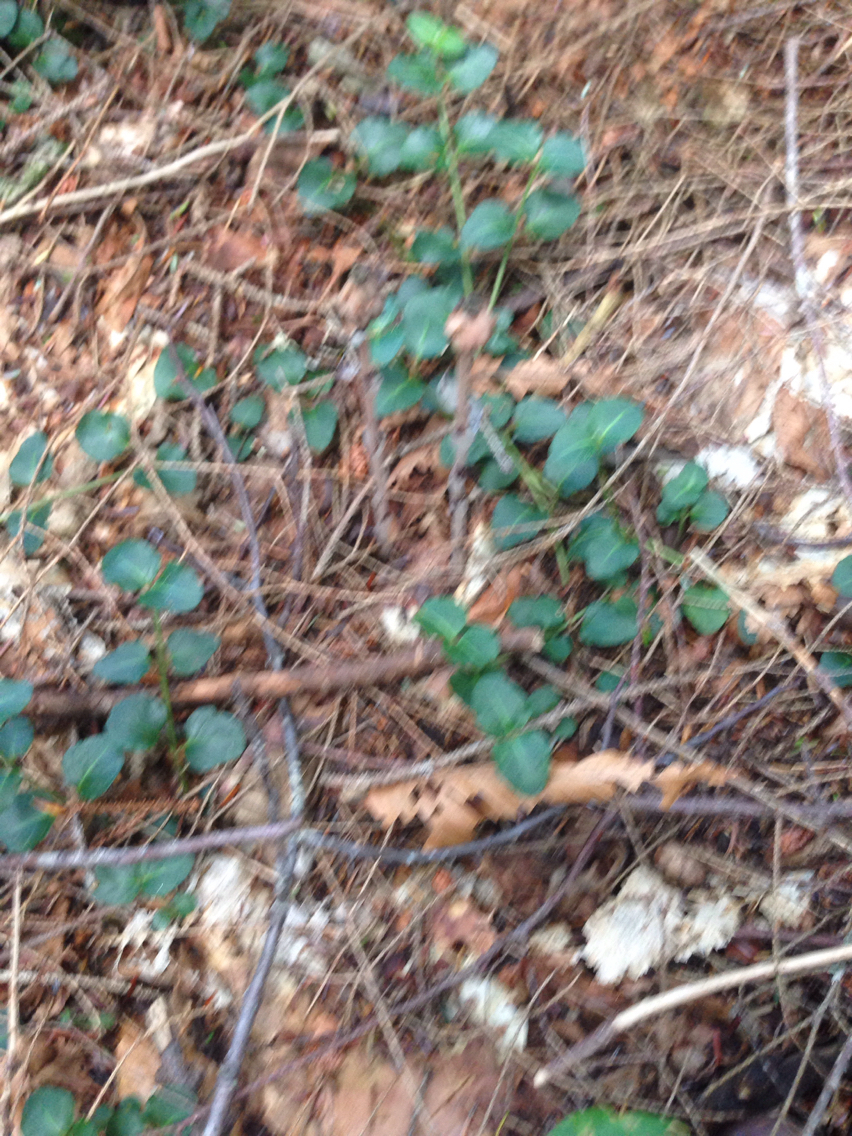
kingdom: Plantae
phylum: Tracheophyta
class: Magnoliopsida
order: Gentianales
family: Rubiaceae
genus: Mitchella
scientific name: Mitchella repens
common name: Partridge-berry
